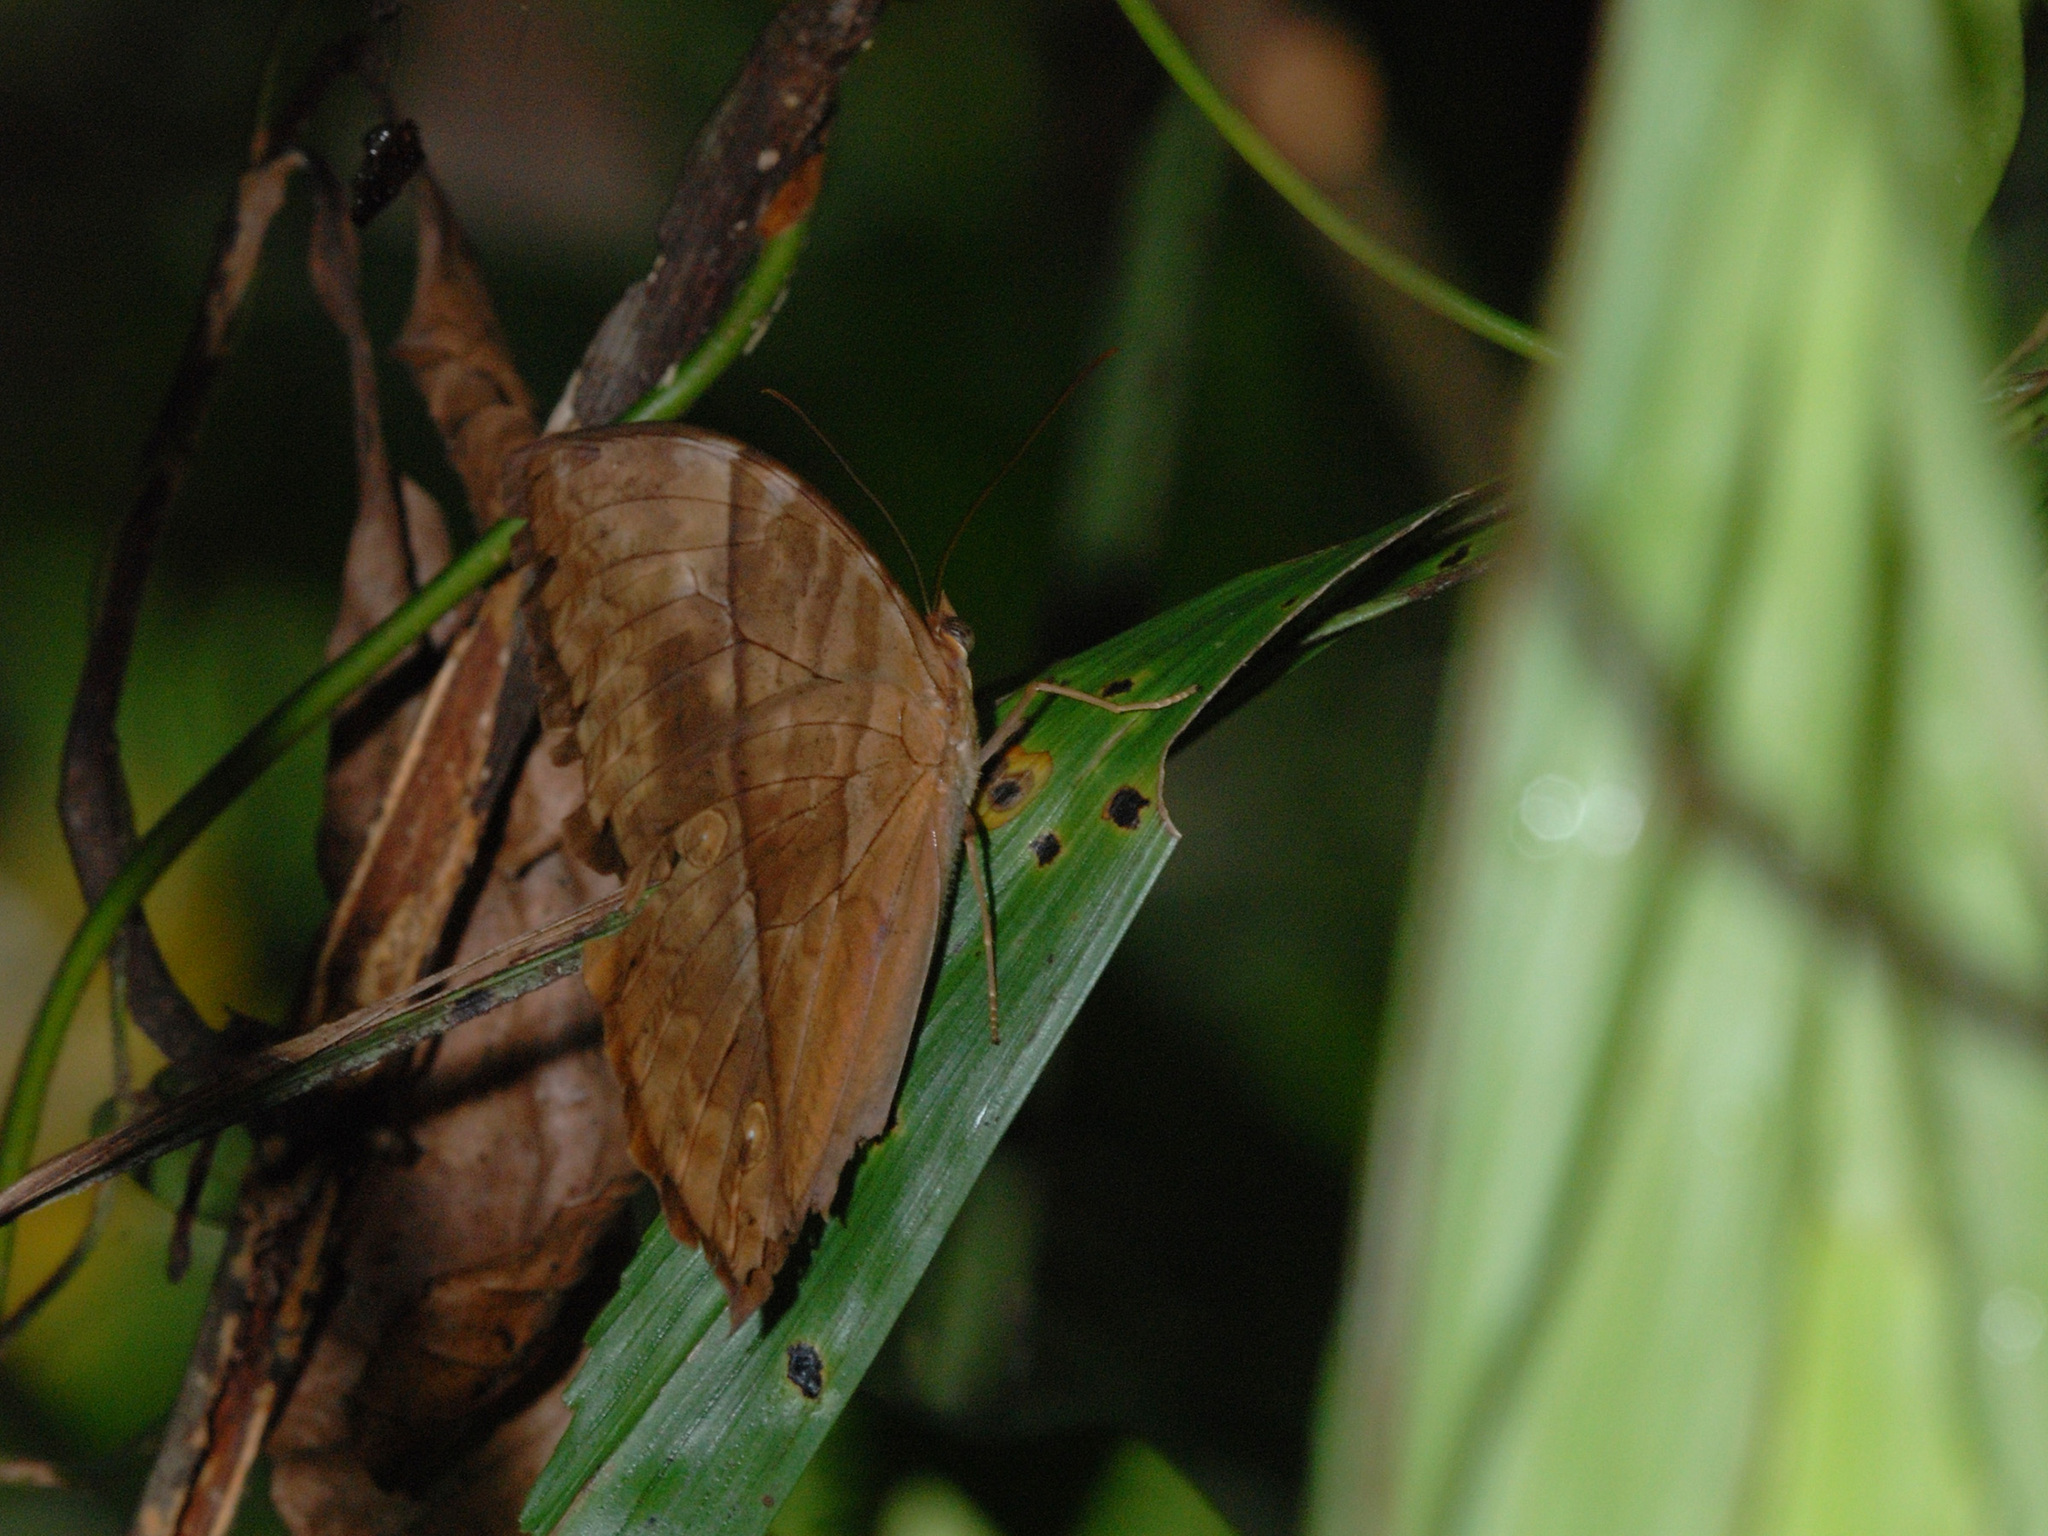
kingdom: Animalia
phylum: Arthropoda
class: Insecta
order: Lepidoptera
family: Nymphalidae
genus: Zeuxidia
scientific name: Zeuxidia amethysta
